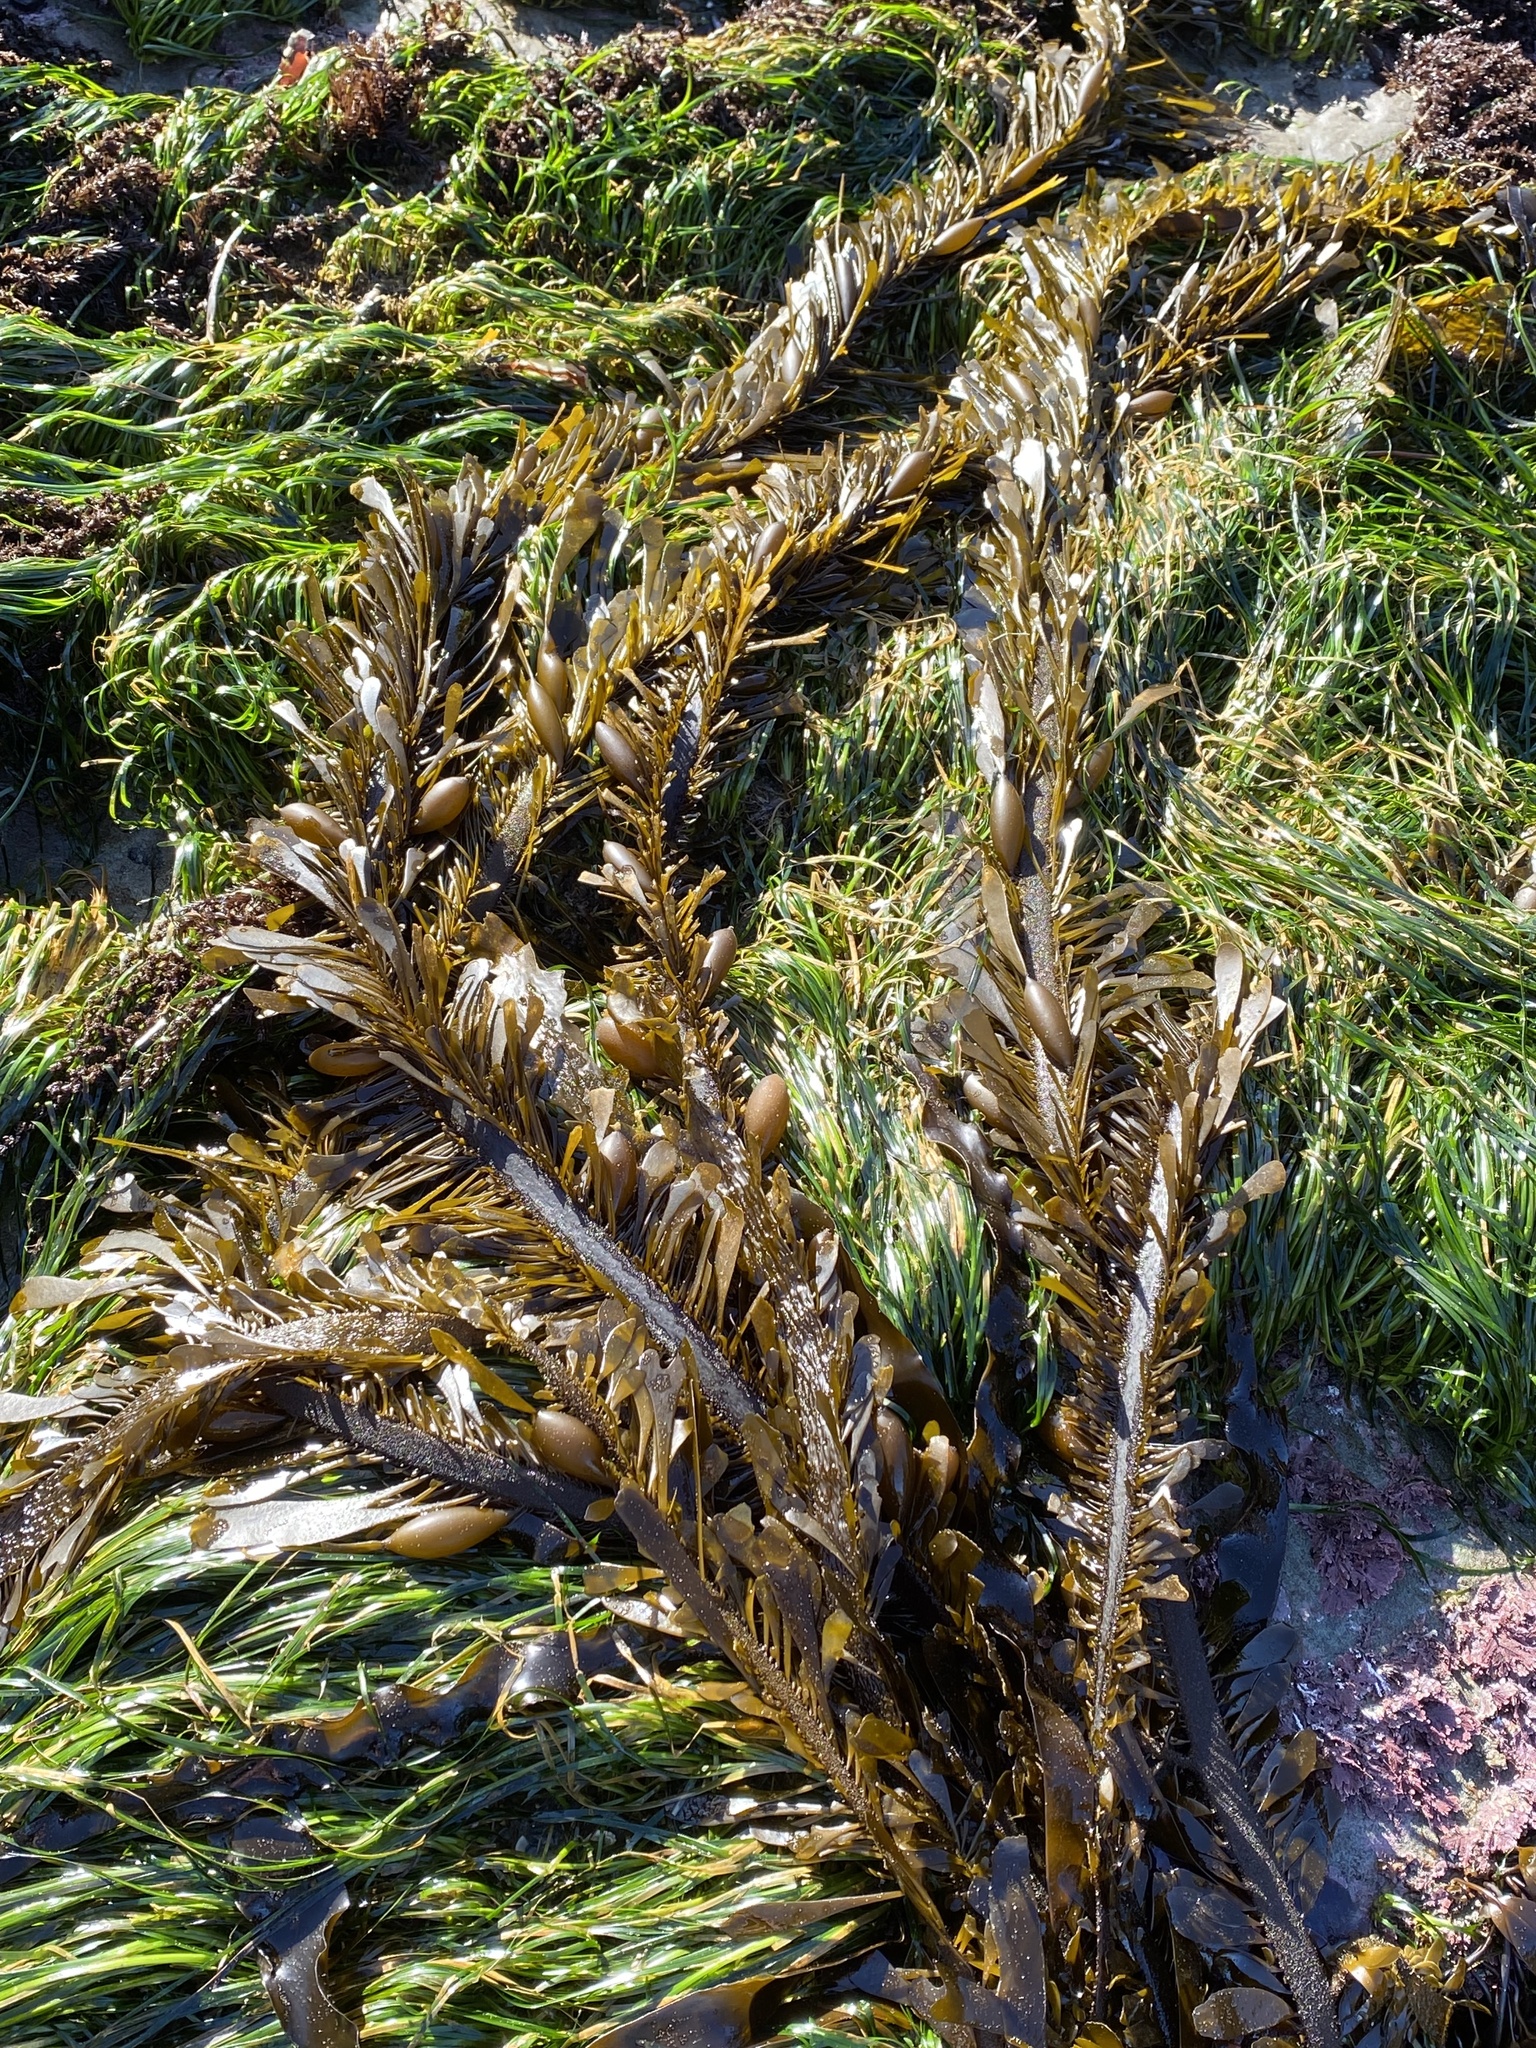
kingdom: Chromista
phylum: Ochrophyta
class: Phaeophyceae
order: Laminariales
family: Lessoniaceae
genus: Egregia
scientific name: Egregia menziesii
